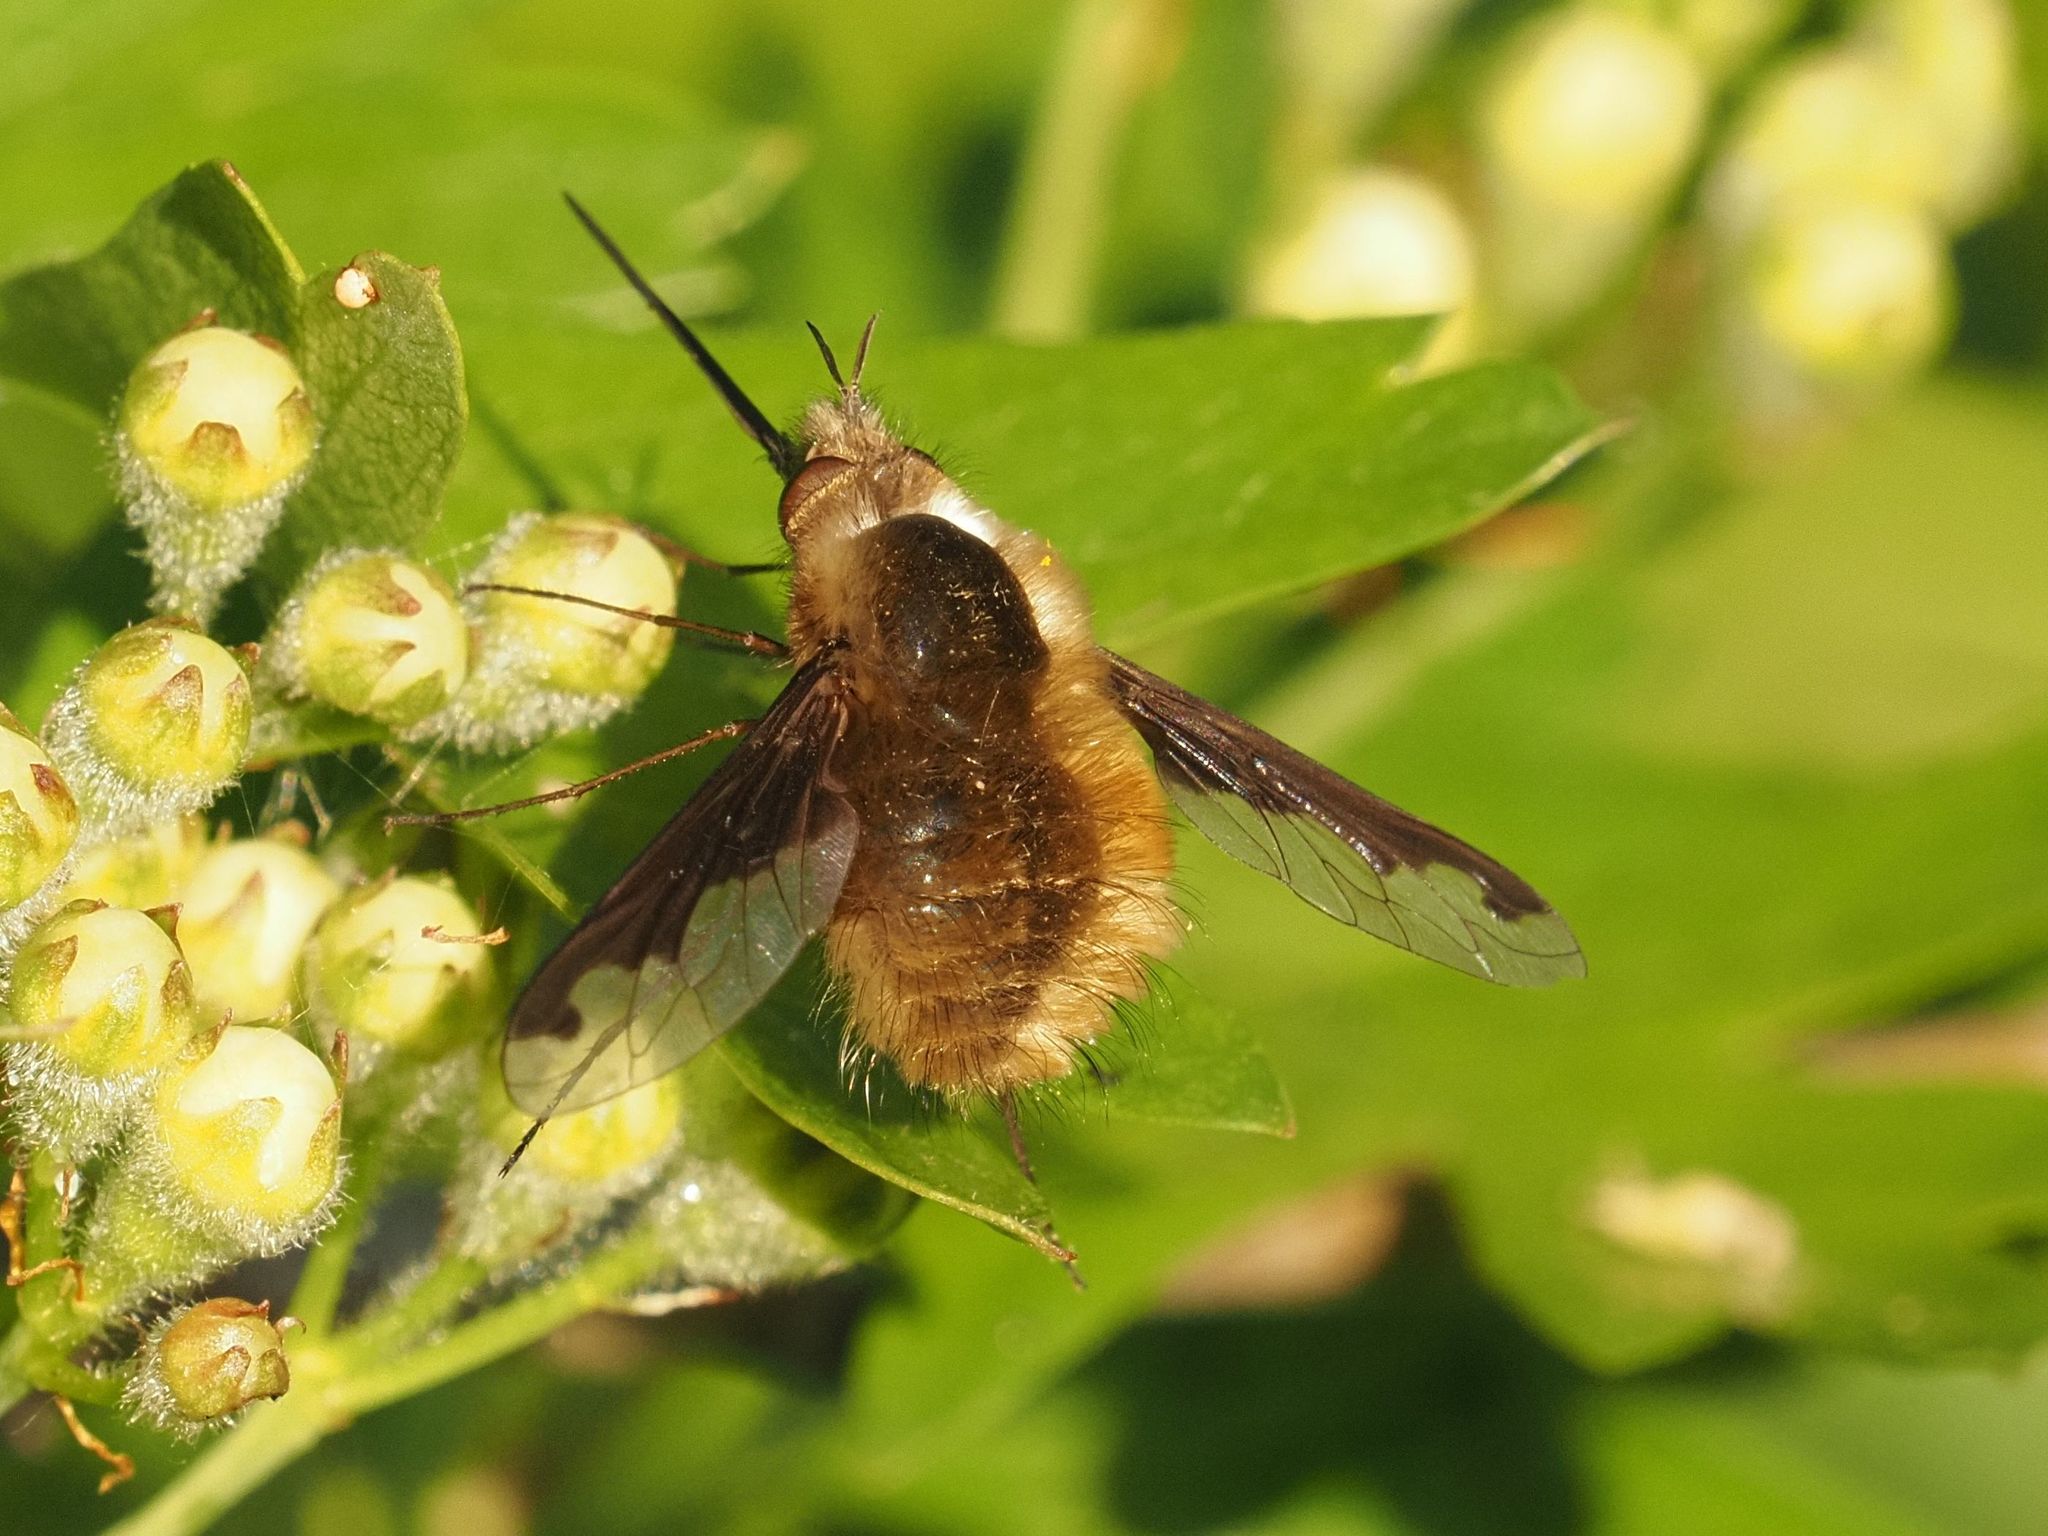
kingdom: Animalia
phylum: Arthropoda
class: Insecta
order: Diptera
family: Bombyliidae
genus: Bombylius
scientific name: Bombylius major
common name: Bee fly
